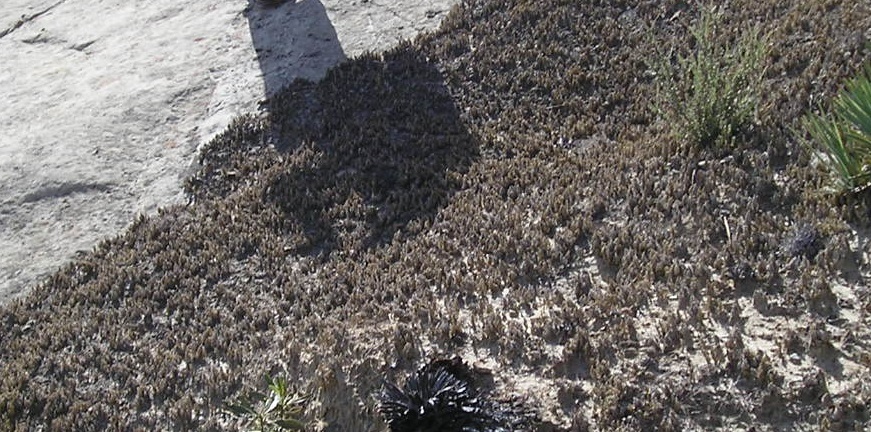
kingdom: Plantae
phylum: Tracheophyta
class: Lycopodiopsida
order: Selaginellales
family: Selaginellaceae
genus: Selaginella
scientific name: Selaginella bigelovii
